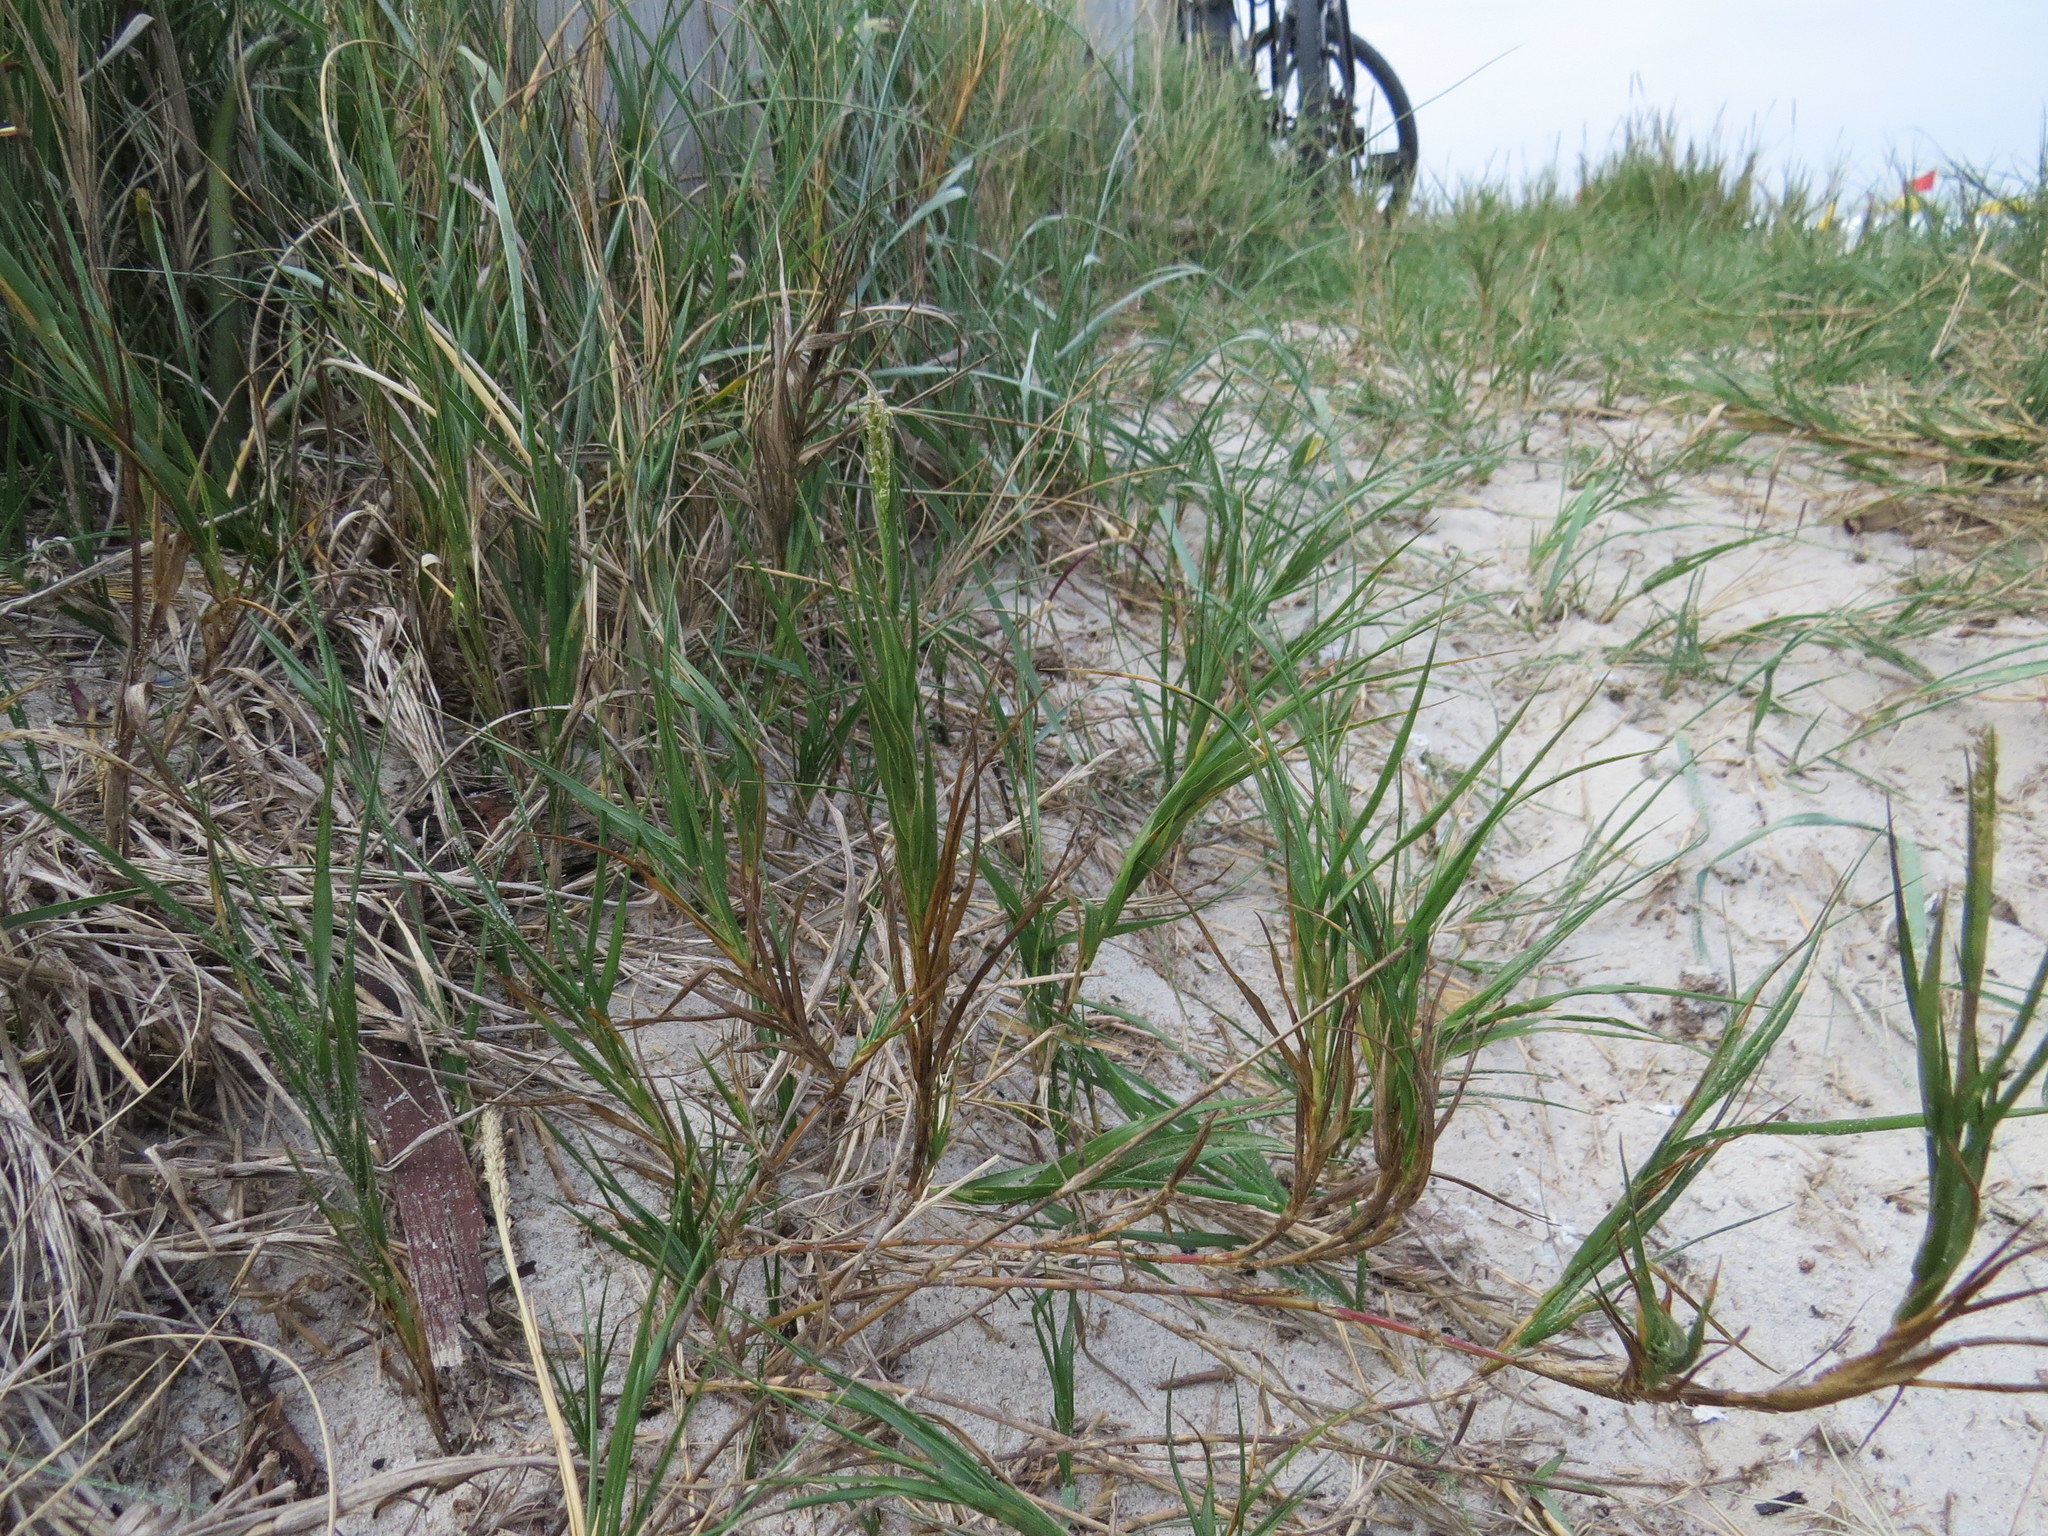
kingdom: Plantae
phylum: Tracheophyta
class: Liliopsida
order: Poales
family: Poaceae
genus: Sporobolus
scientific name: Sporobolus virginicus
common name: Beach dropseed
